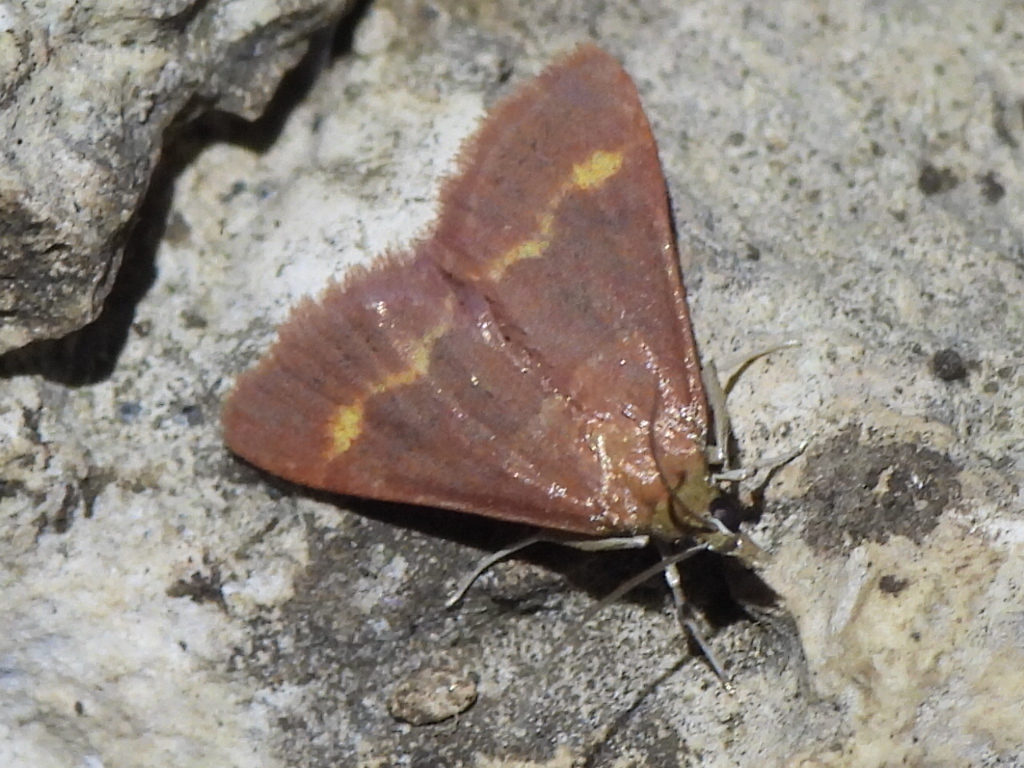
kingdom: Animalia
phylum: Arthropoda
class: Insecta
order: Lepidoptera
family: Crambidae
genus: Pyrausta
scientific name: Pyrausta pseuderosnealis
